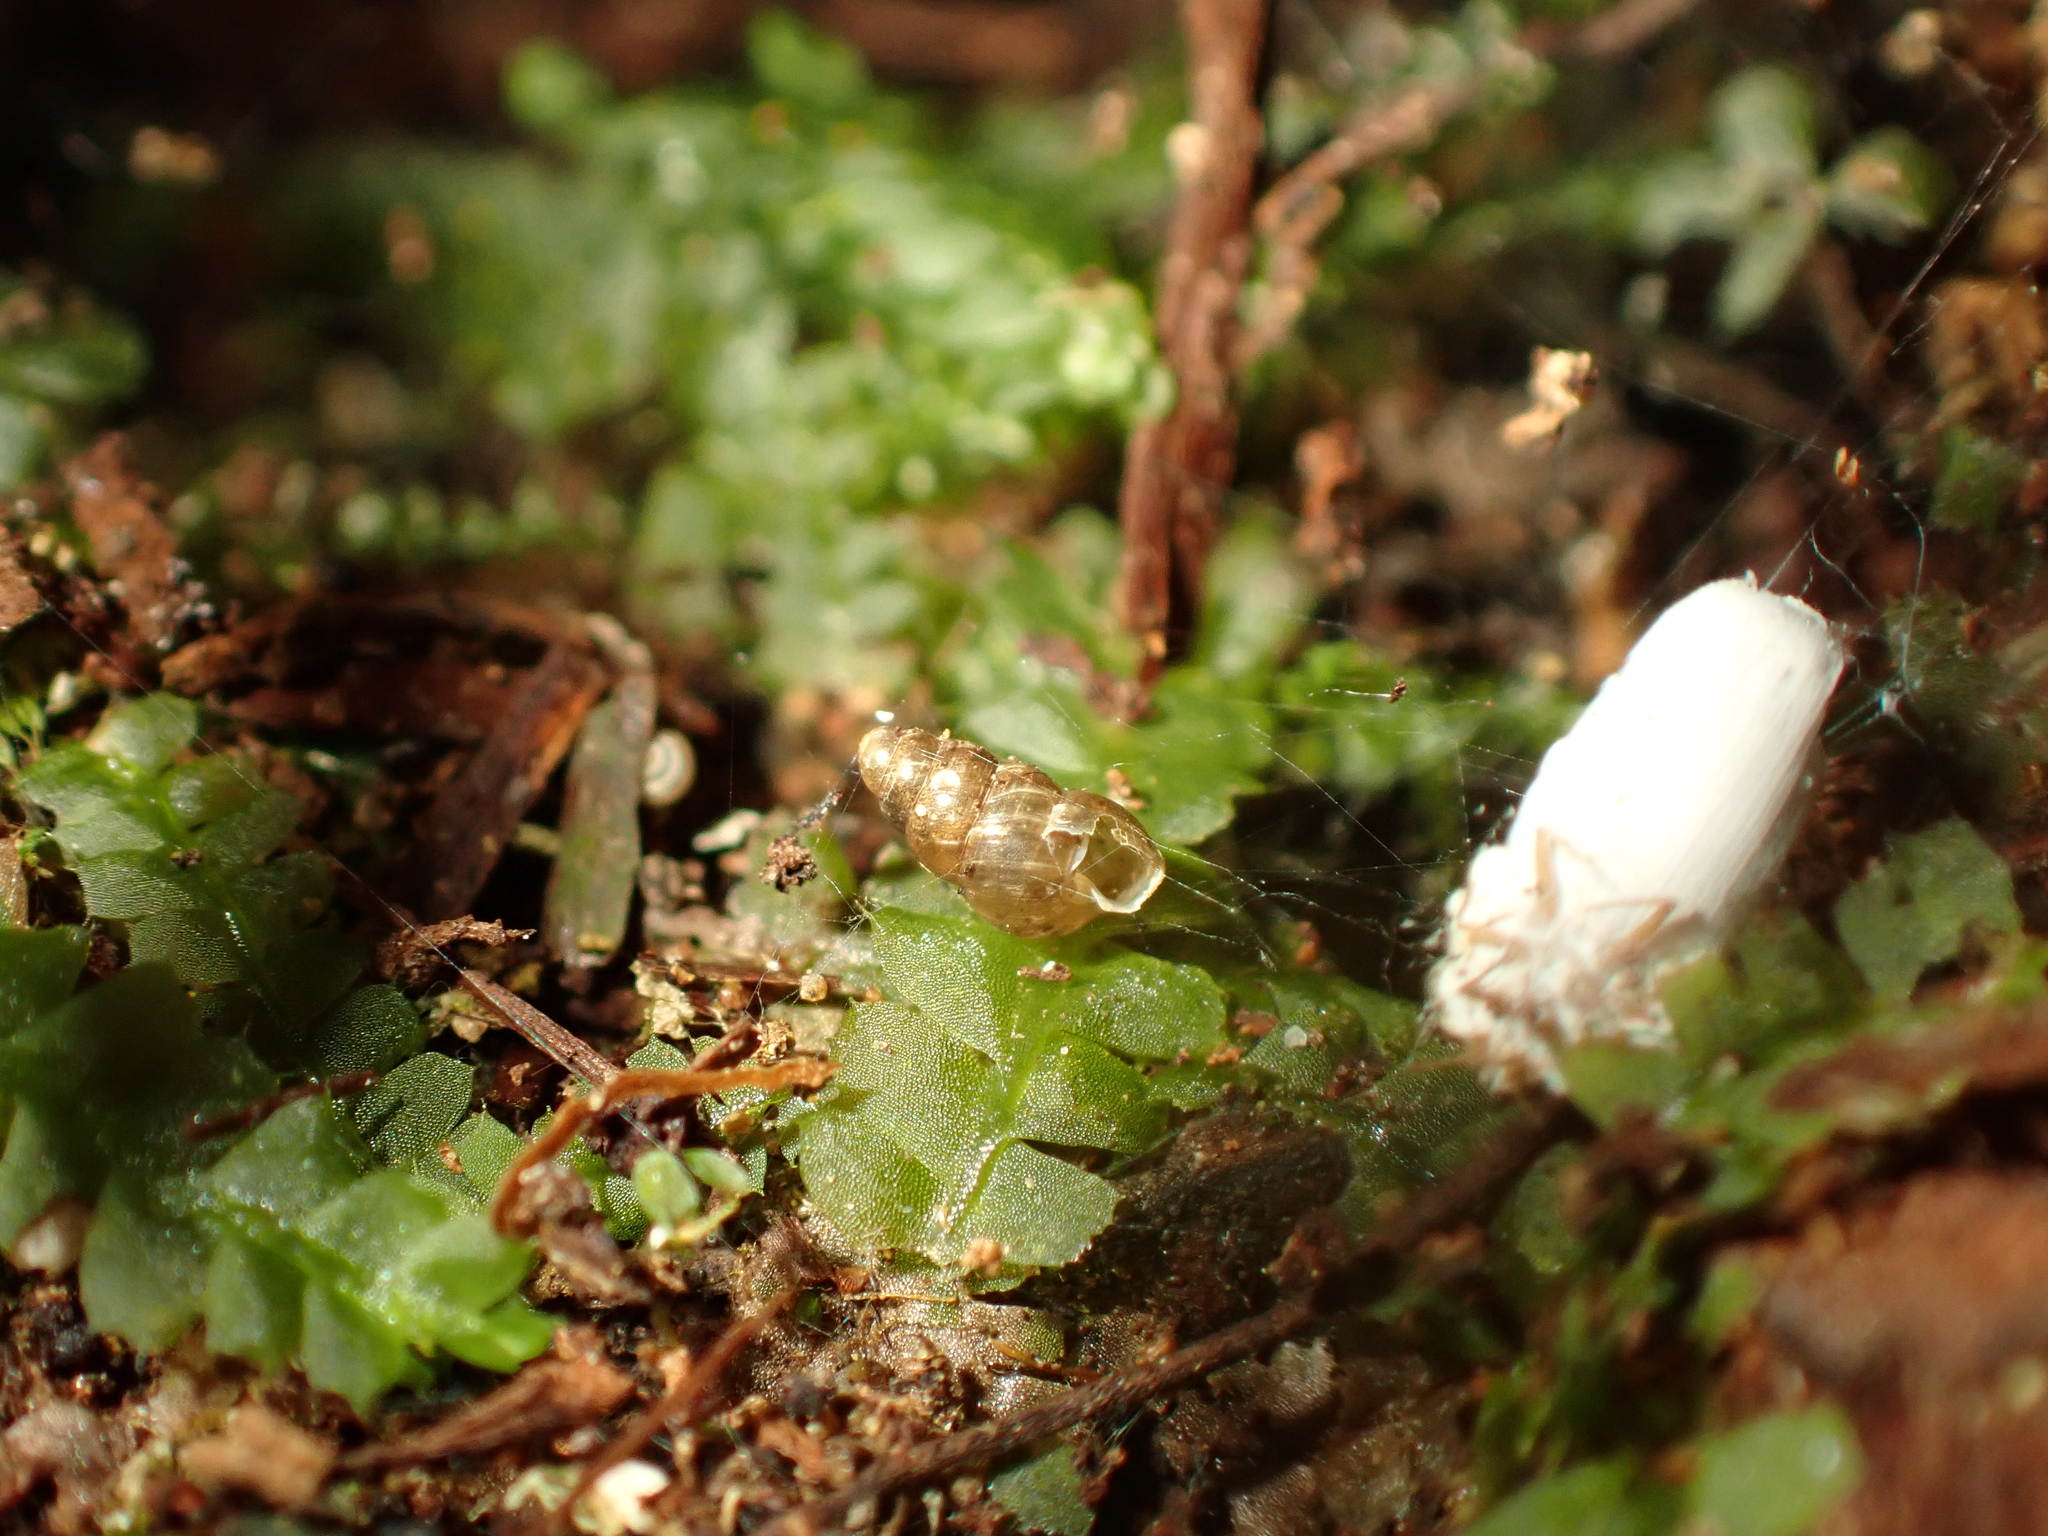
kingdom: Animalia
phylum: Mollusca
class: Gastropoda
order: Stylommatophora
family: Achatinellidae
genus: Tornatellinops
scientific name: Tornatellinops novoseelandicus
